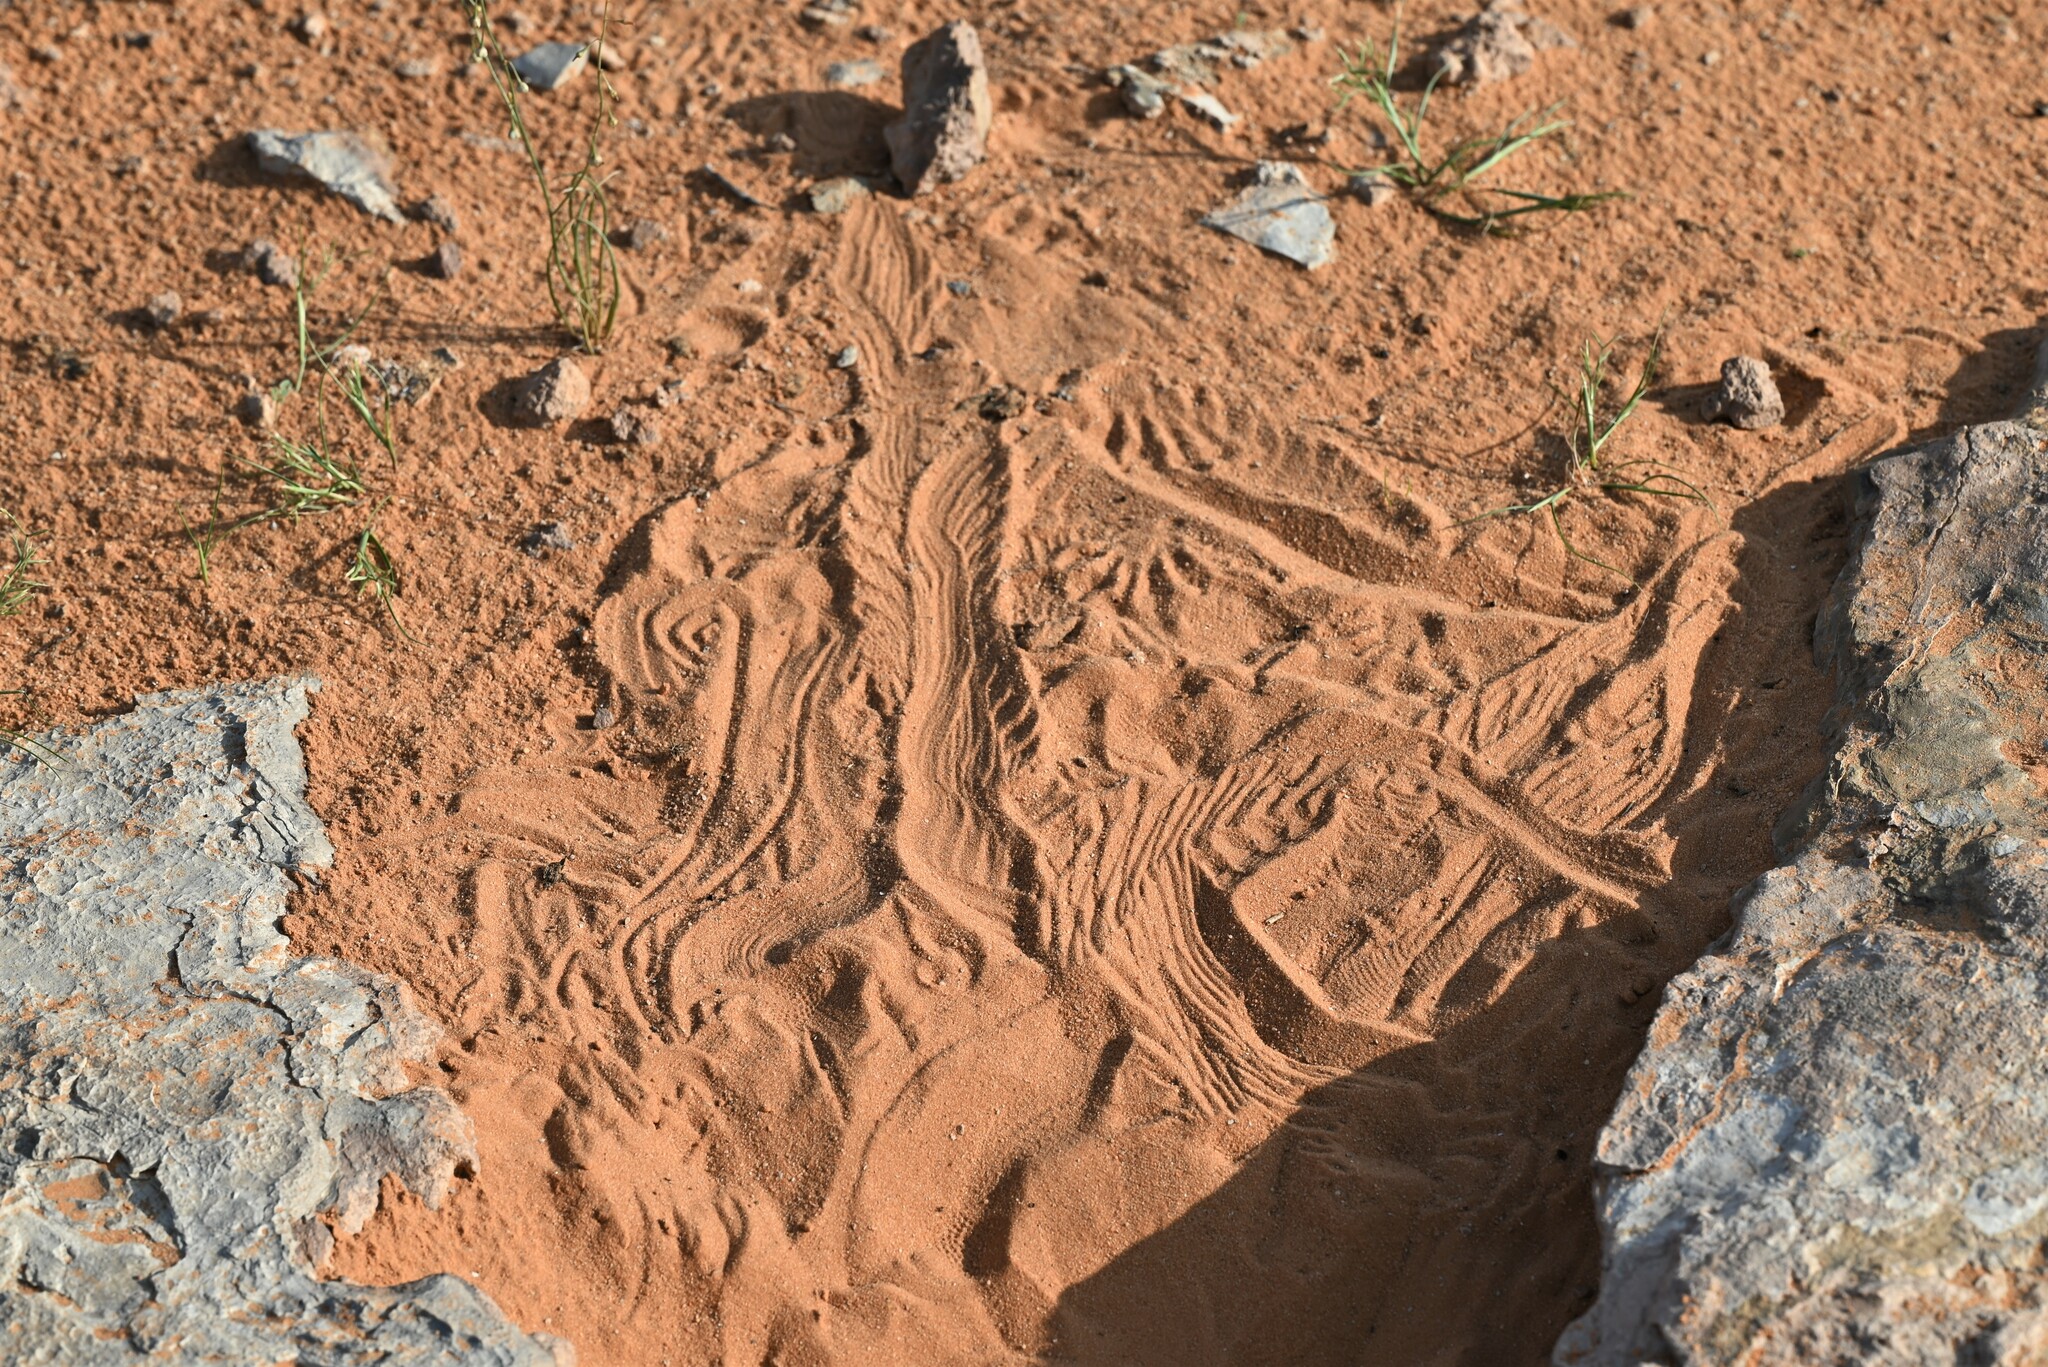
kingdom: Animalia
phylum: Chordata
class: Squamata
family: Agamidae
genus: Uromastyx
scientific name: Uromastyx aegyptia
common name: Egyptian mastigure
